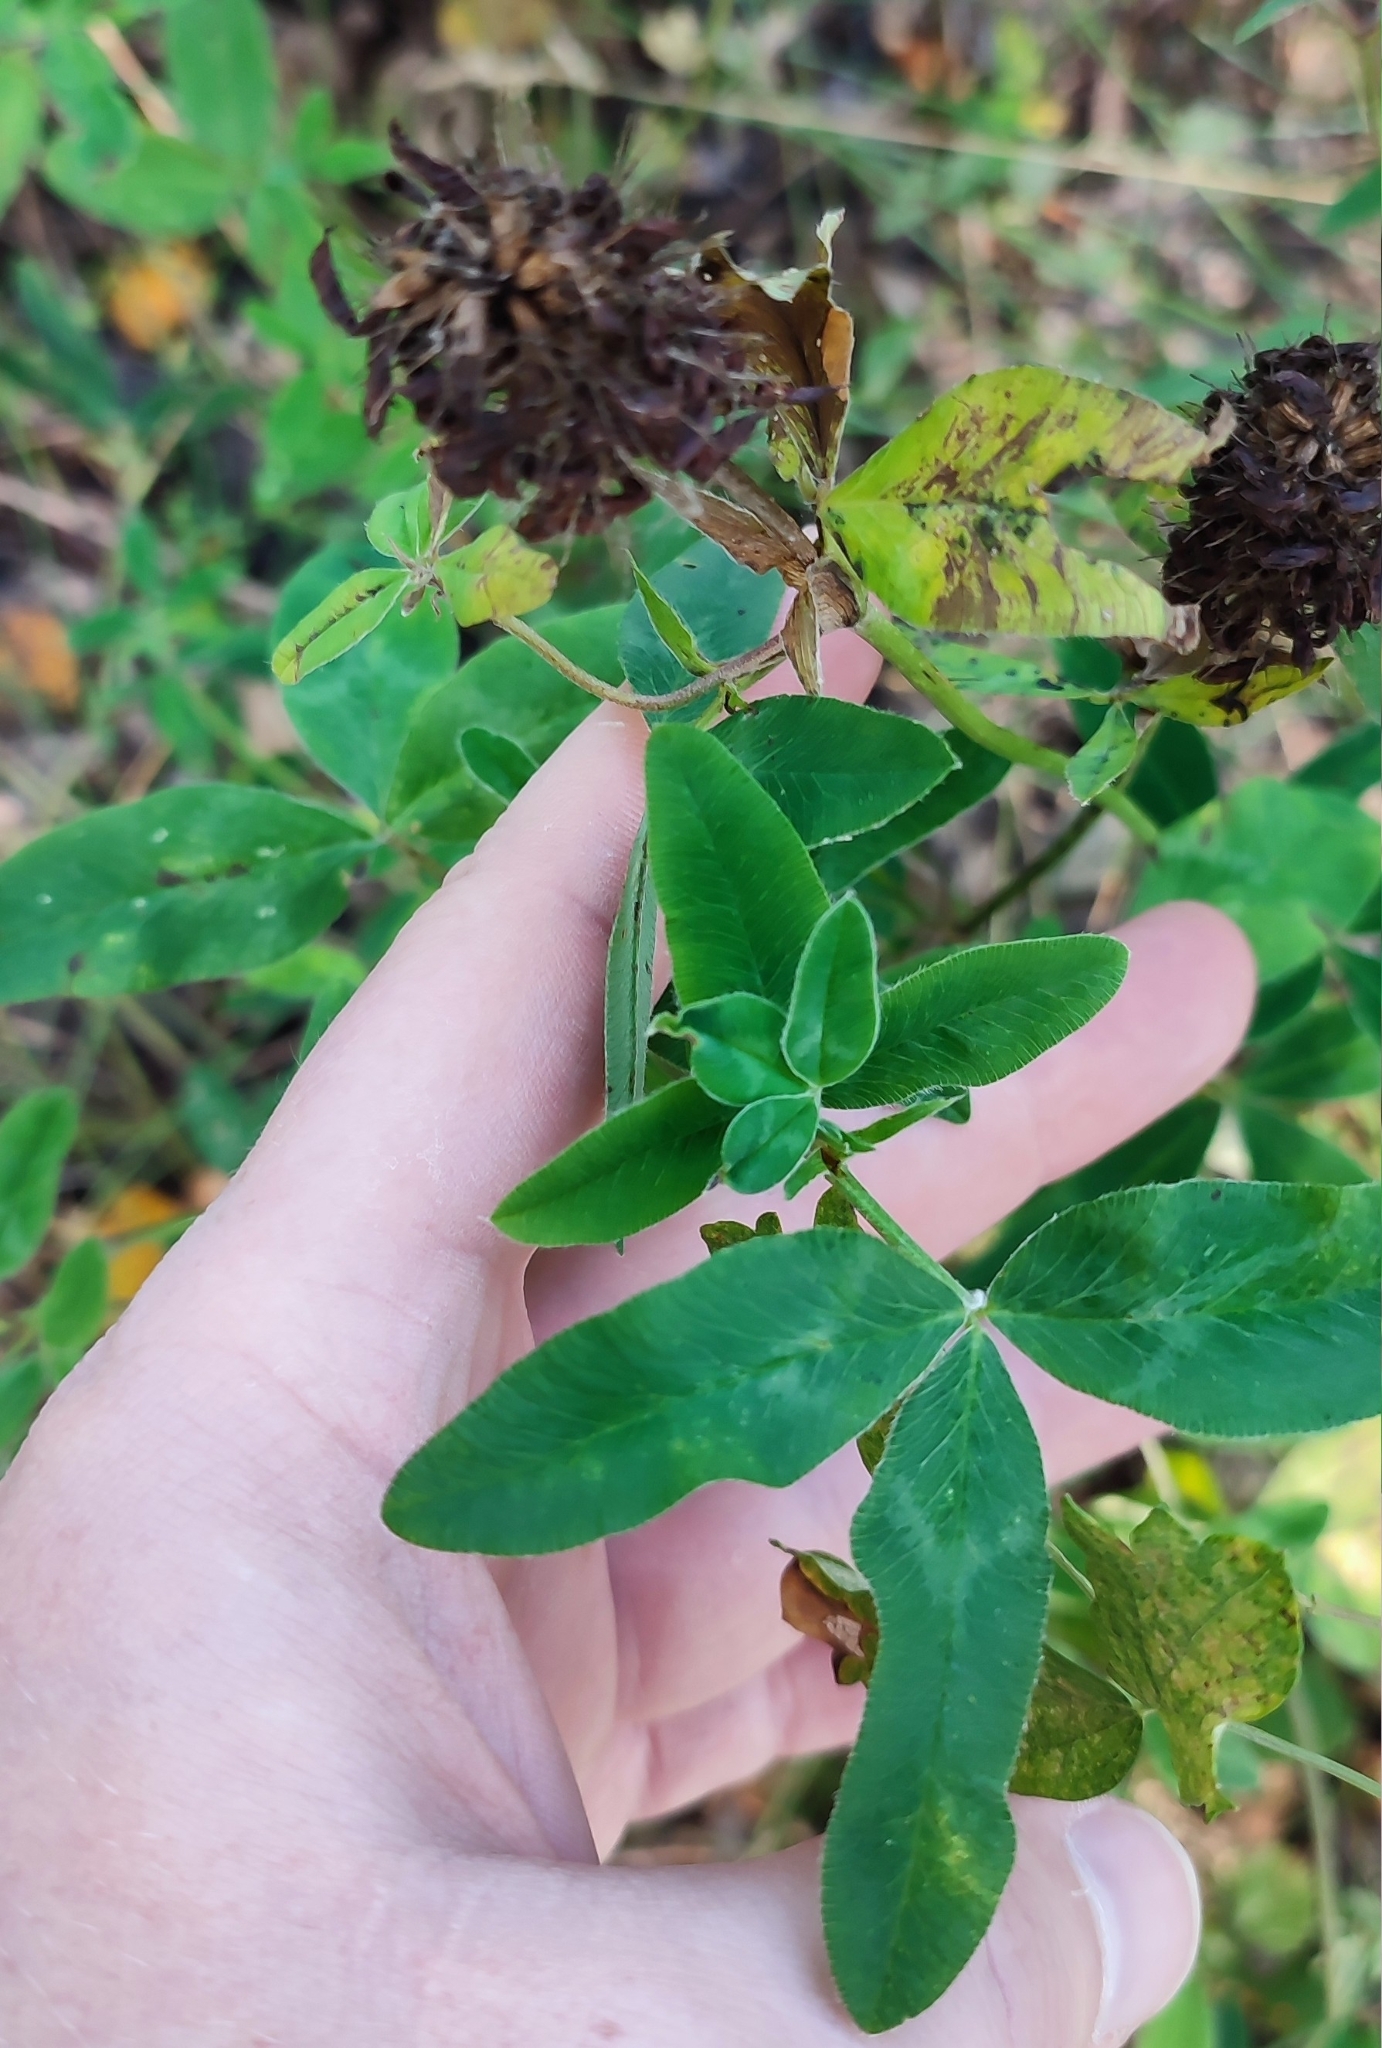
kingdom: Plantae
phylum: Tracheophyta
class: Magnoliopsida
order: Fabales
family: Fabaceae
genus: Trifolium
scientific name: Trifolium pratense
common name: Red clover
